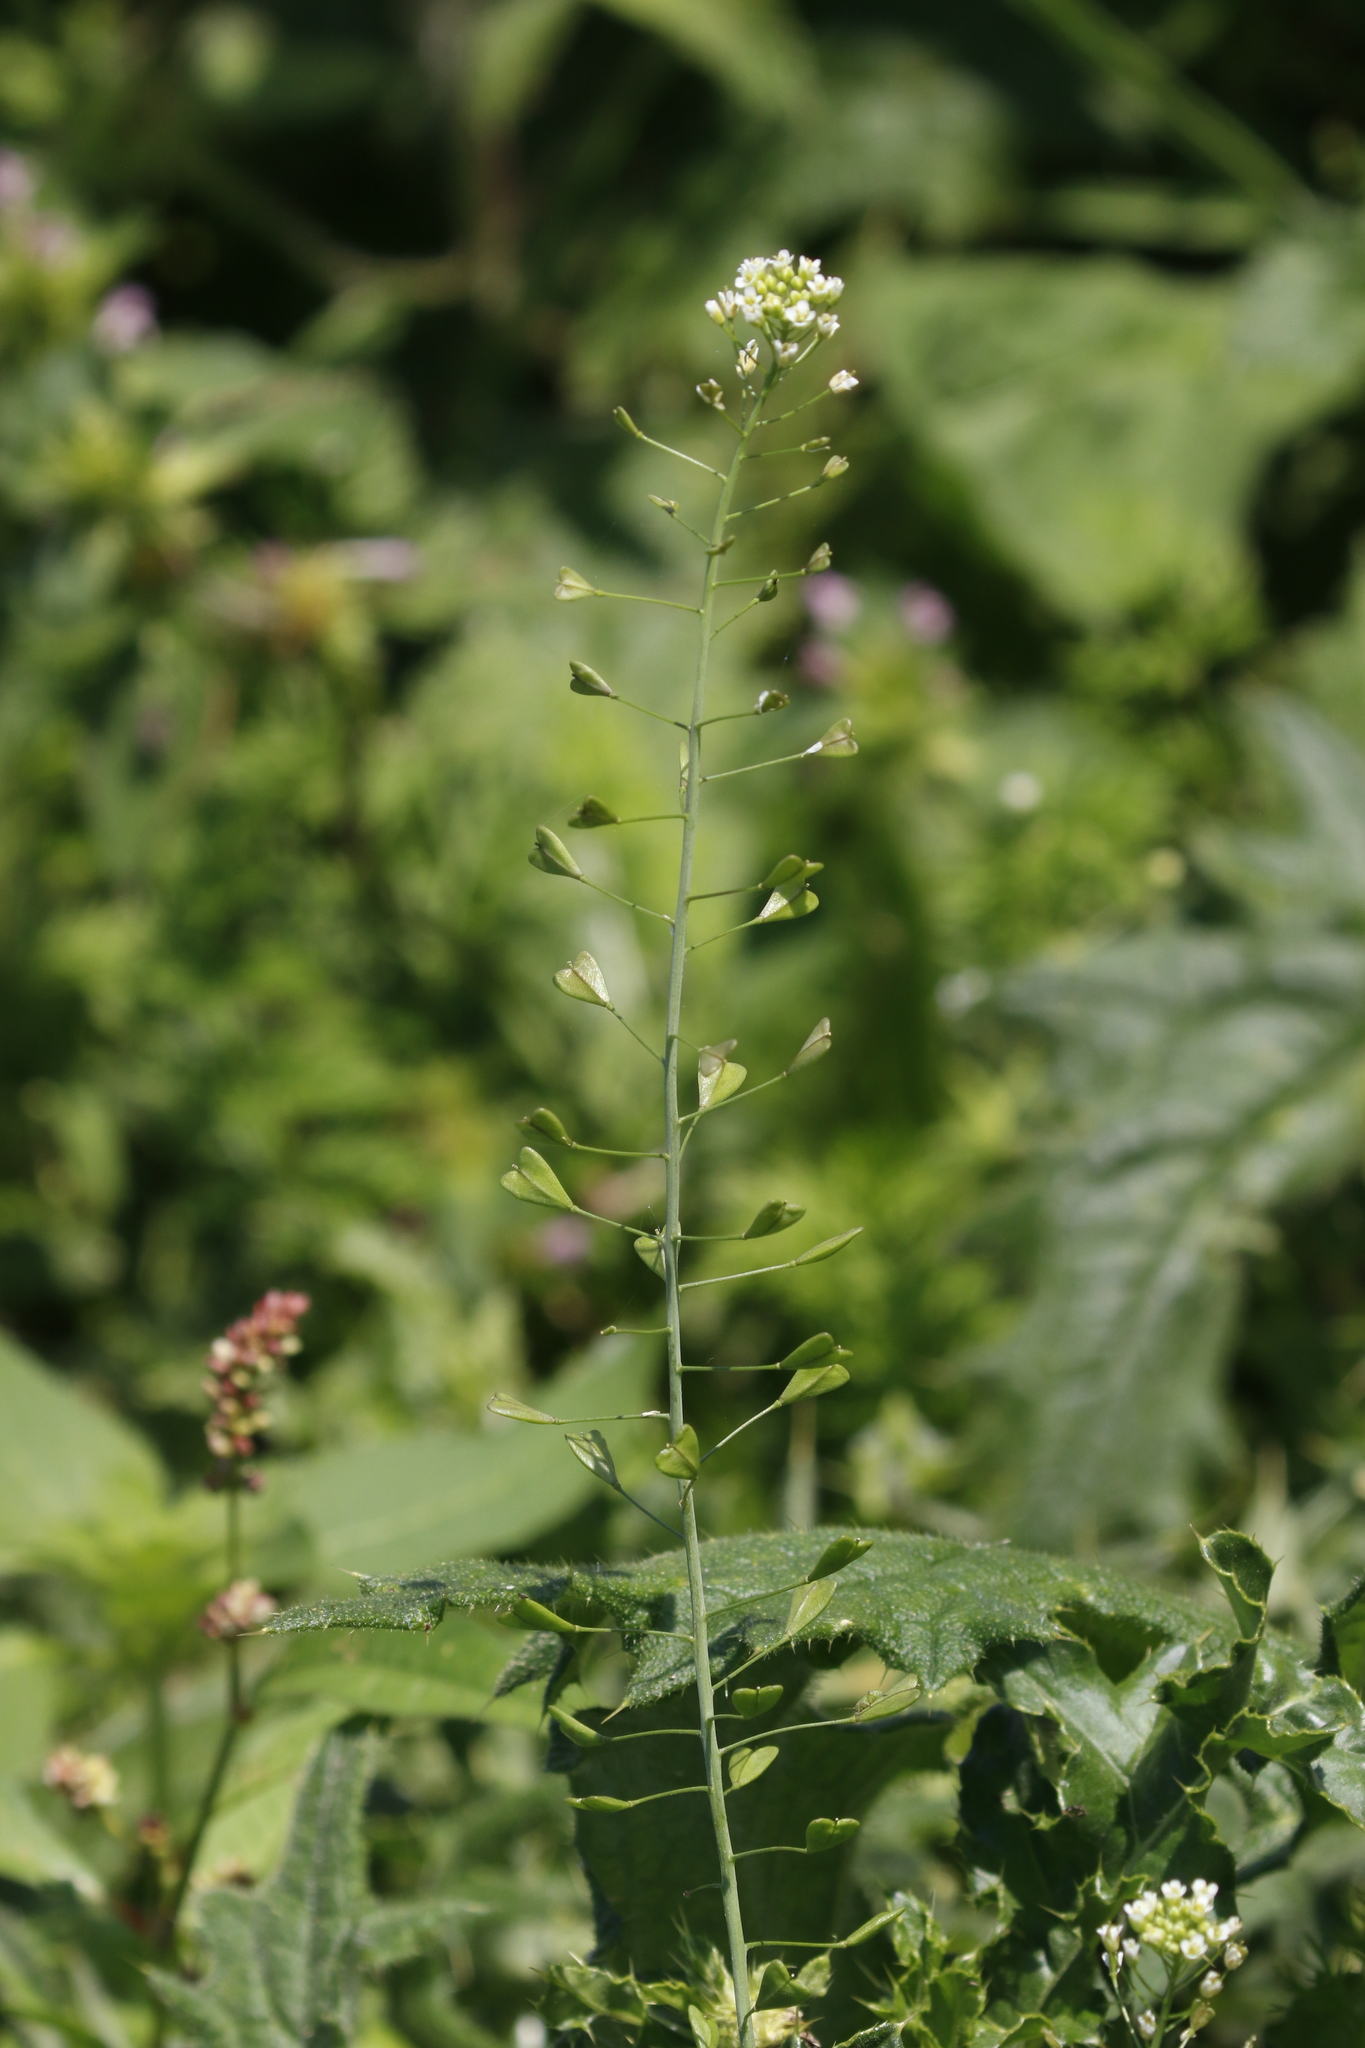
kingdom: Plantae
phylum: Tracheophyta
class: Magnoliopsida
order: Brassicales
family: Brassicaceae
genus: Capsella
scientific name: Capsella bursa-pastoris
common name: Shepherd's purse
